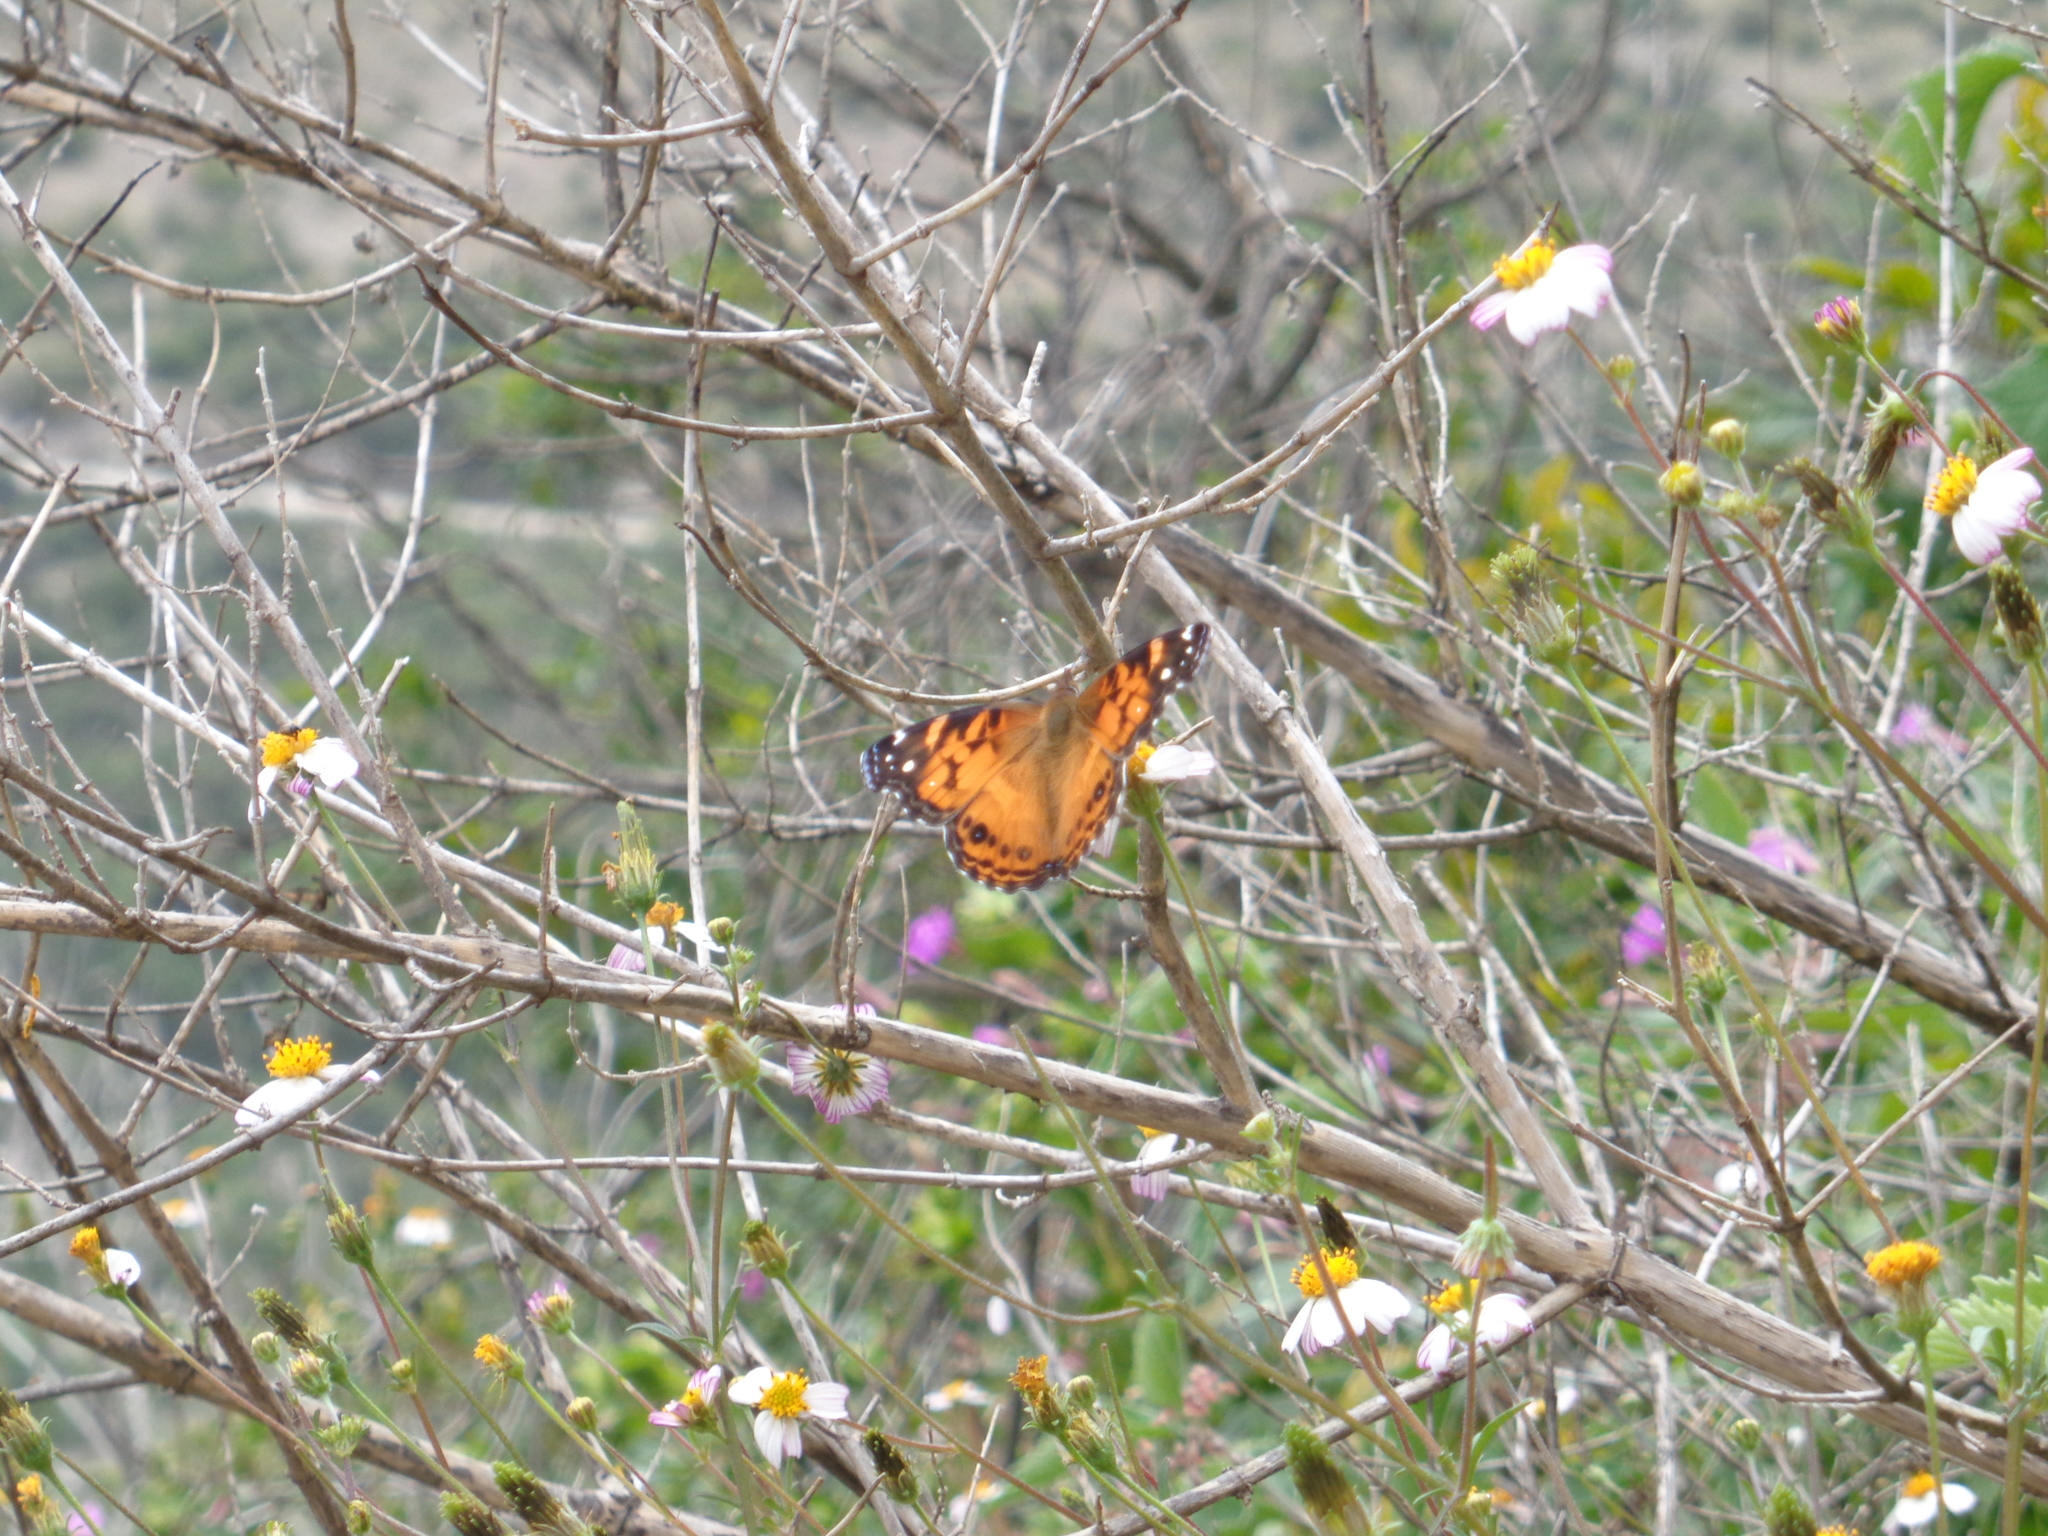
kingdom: Animalia
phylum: Arthropoda
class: Insecta
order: Lepidoptera
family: Nymphalidae
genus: Vanessa
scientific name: Vanessa virginiensis
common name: American lady
